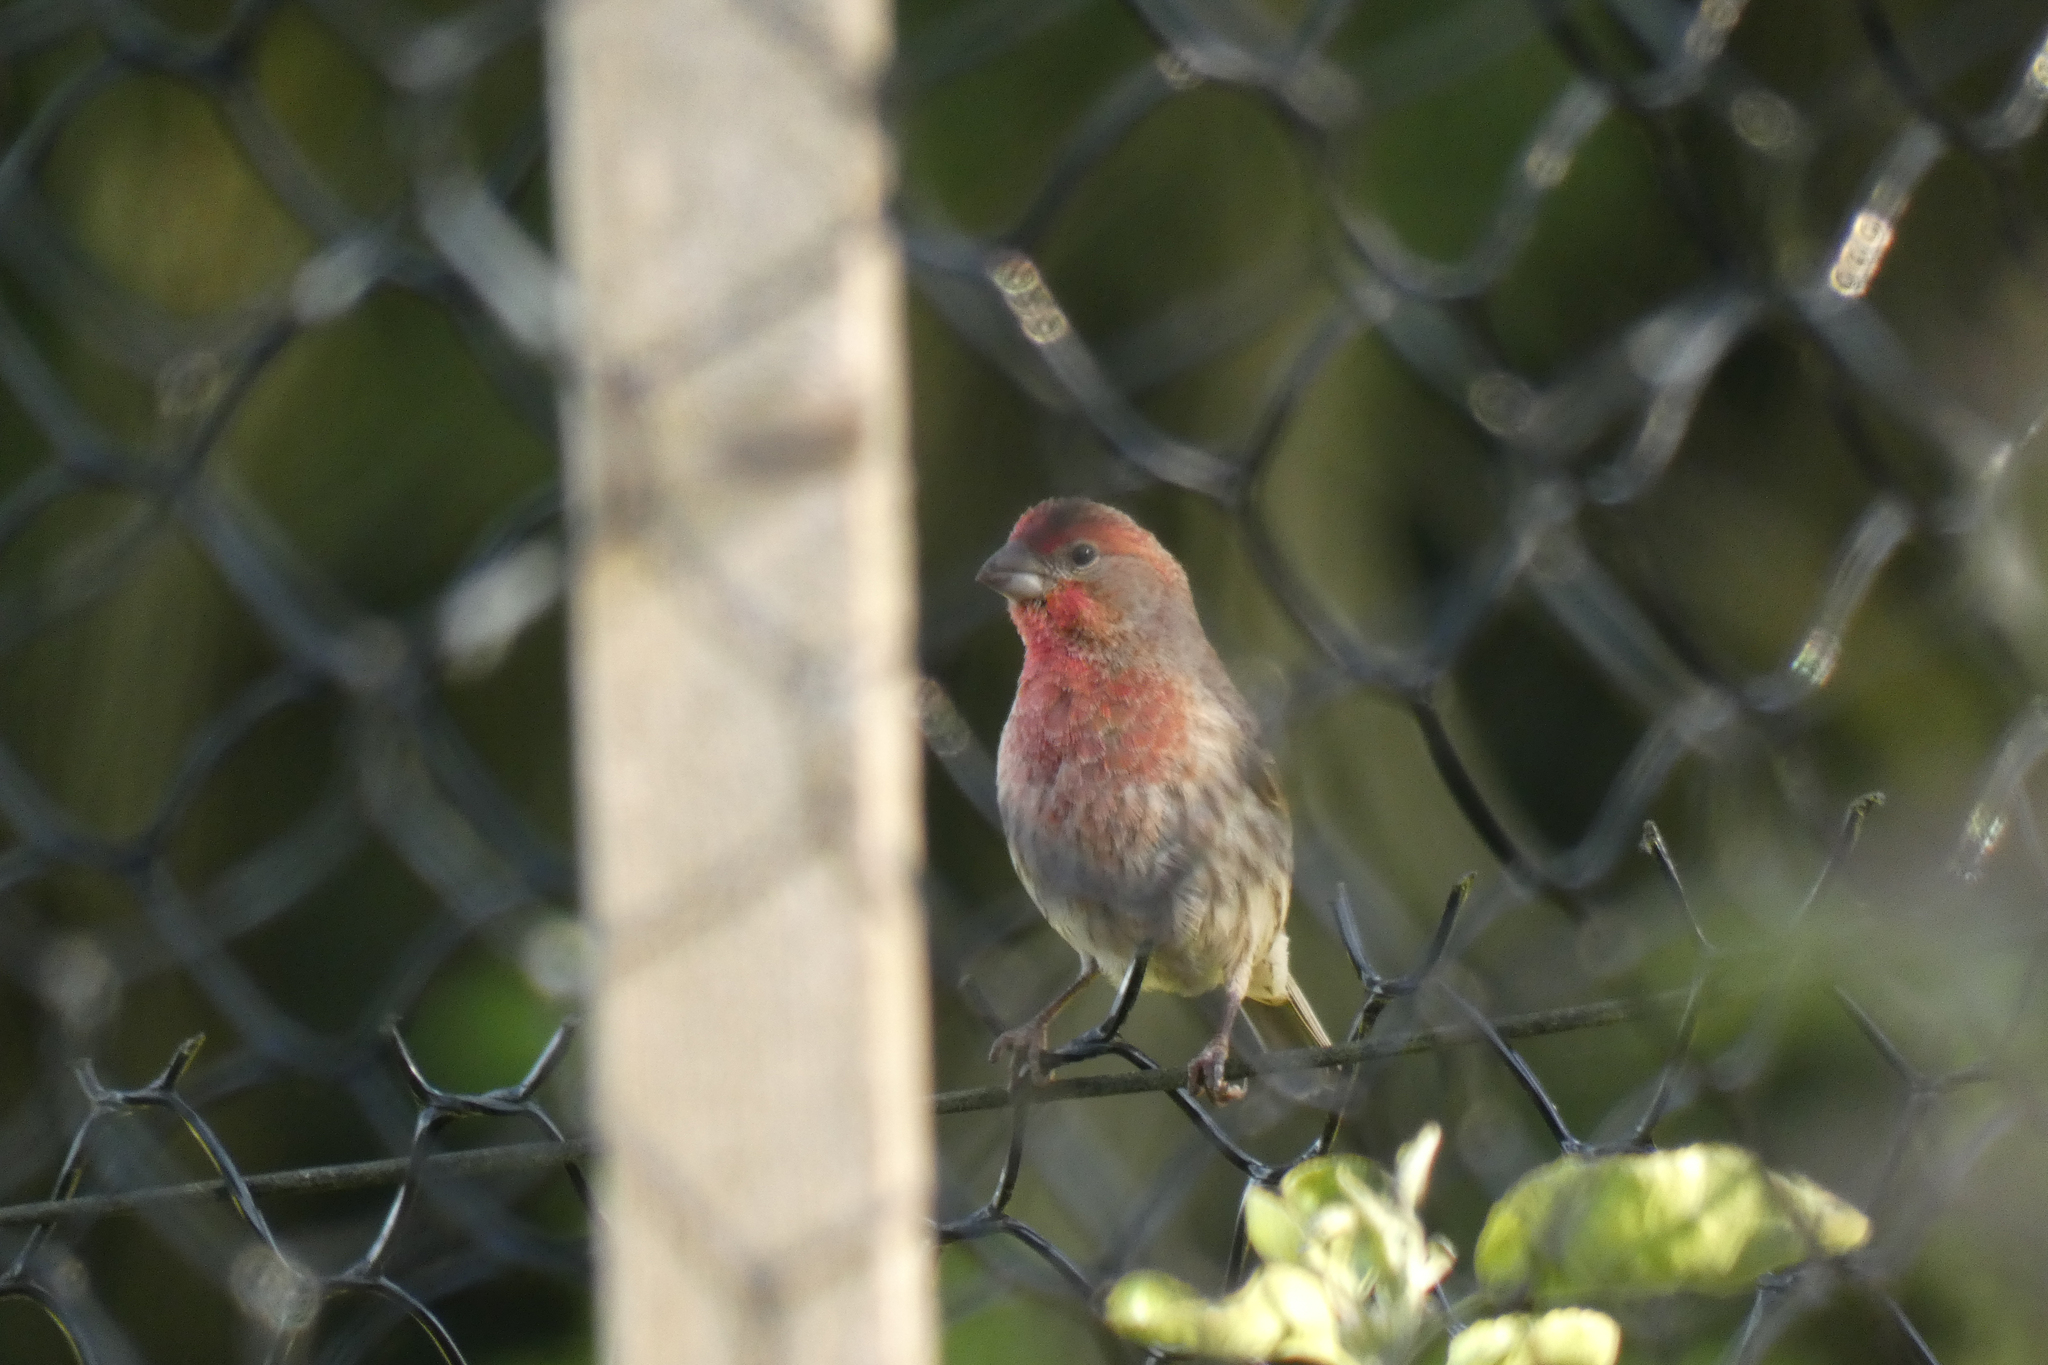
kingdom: Animalia
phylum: Chordata
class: Aves
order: Passeriformes
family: Fringillidae
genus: Haemorhous
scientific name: Haemorhous mexicanus
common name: House finch
